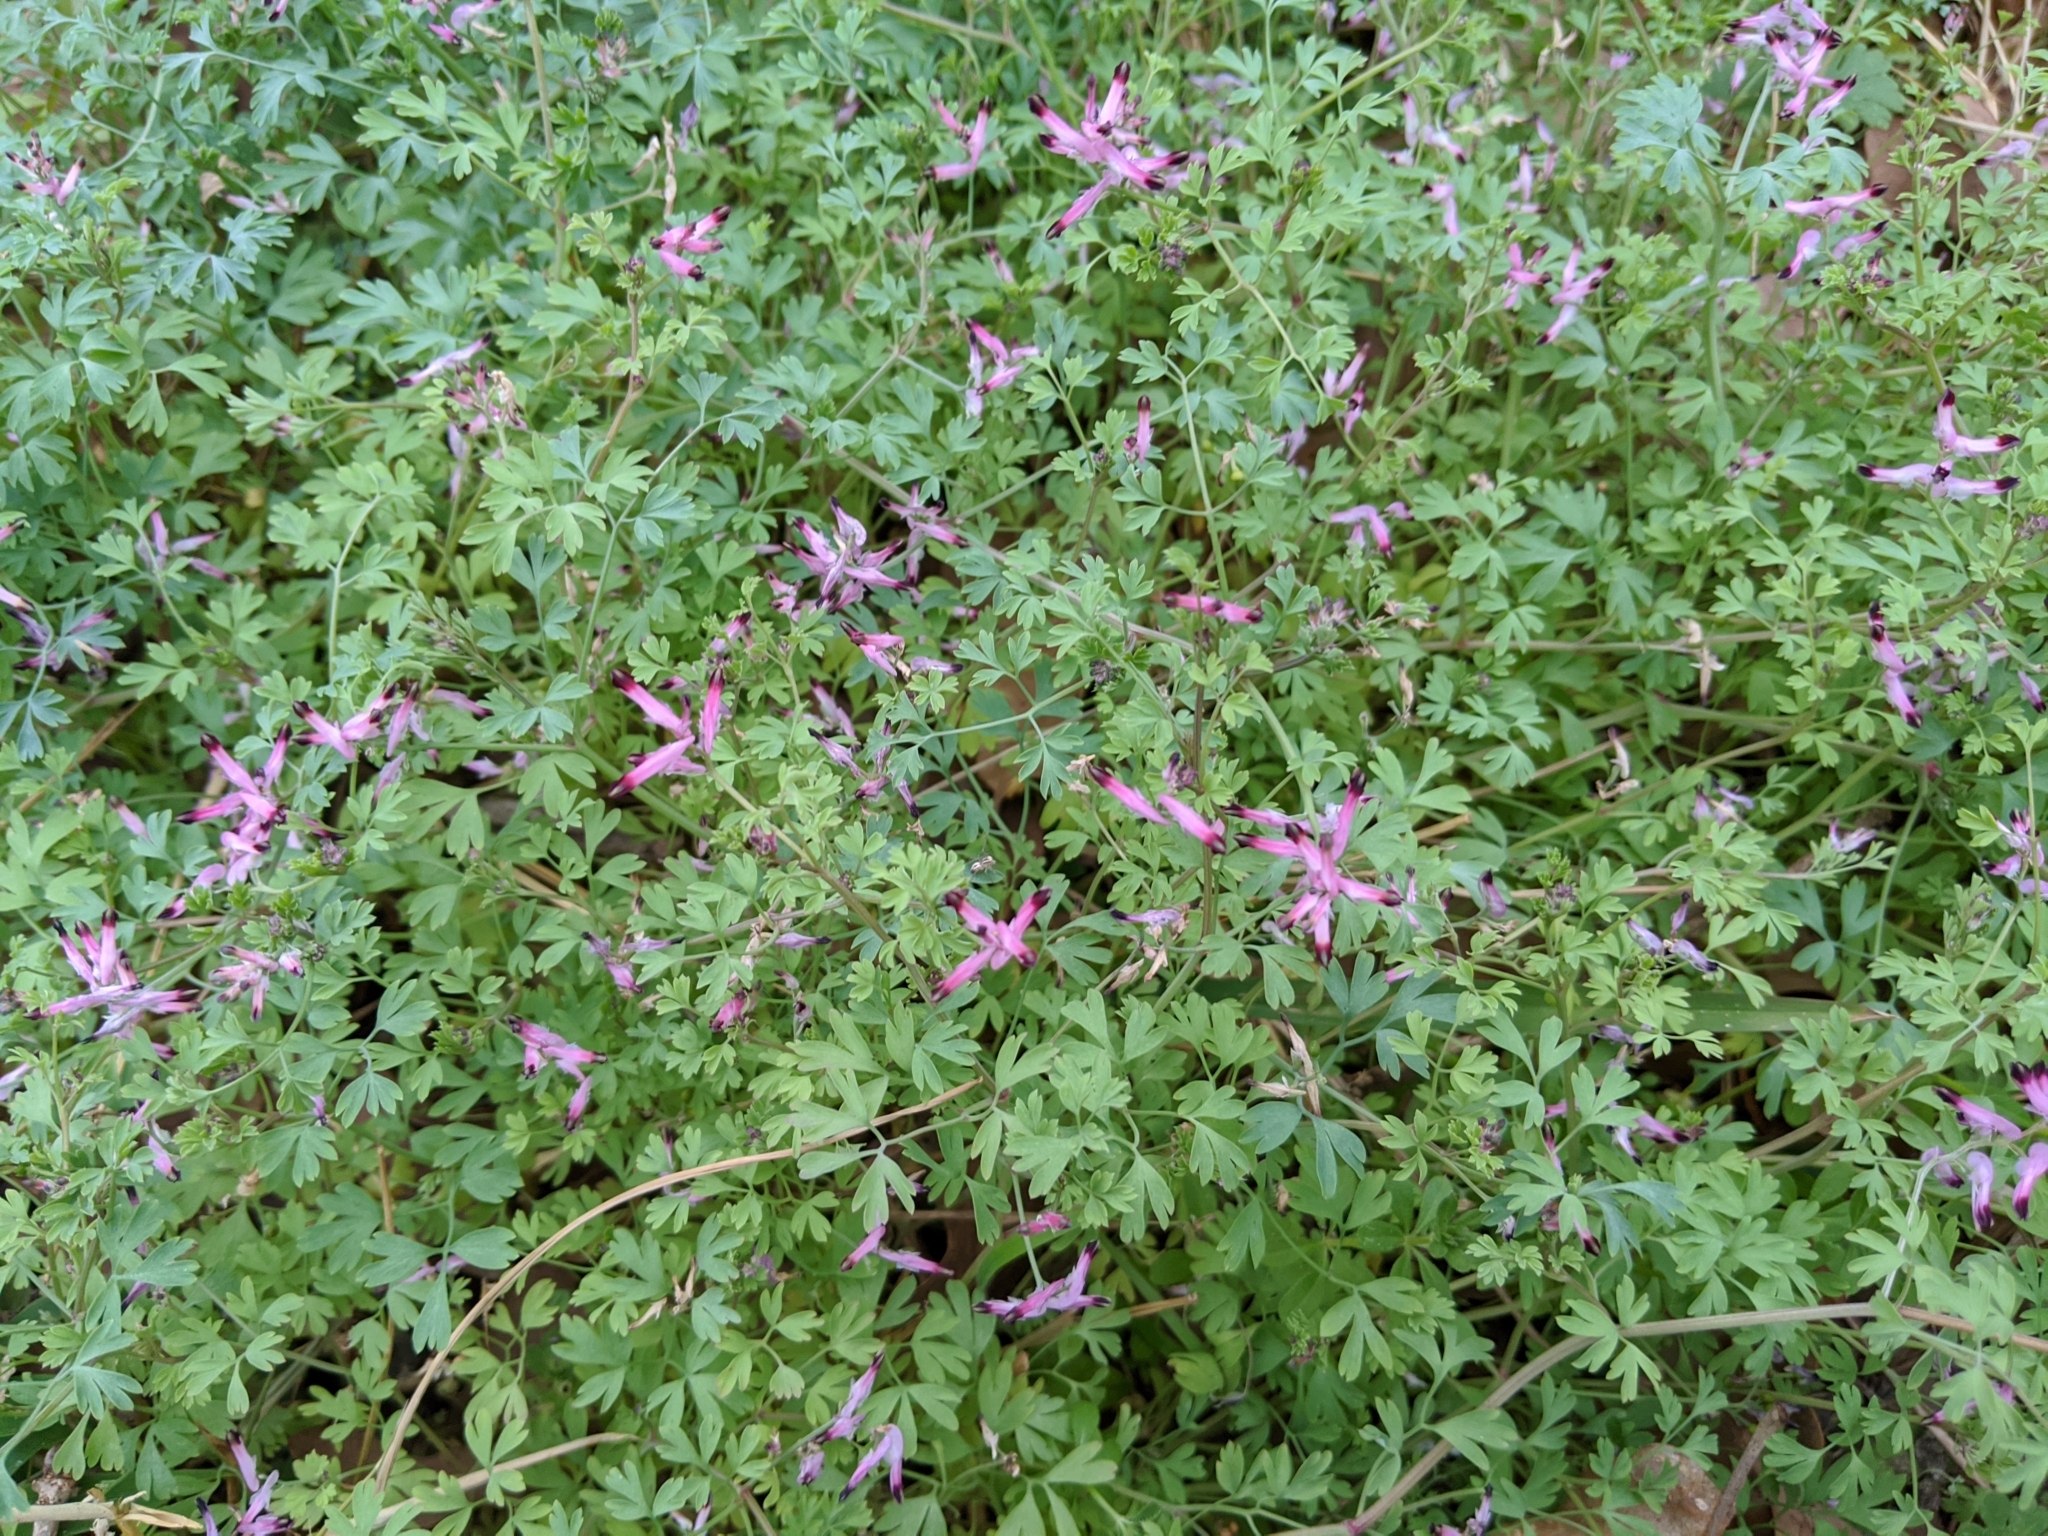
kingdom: Plantae
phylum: Tracheophyta
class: Magnoliopsida
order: Ranunculales
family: Papaveraceae
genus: Fumaria
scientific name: Fumaria muralis
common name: Common ramping-fumitory
